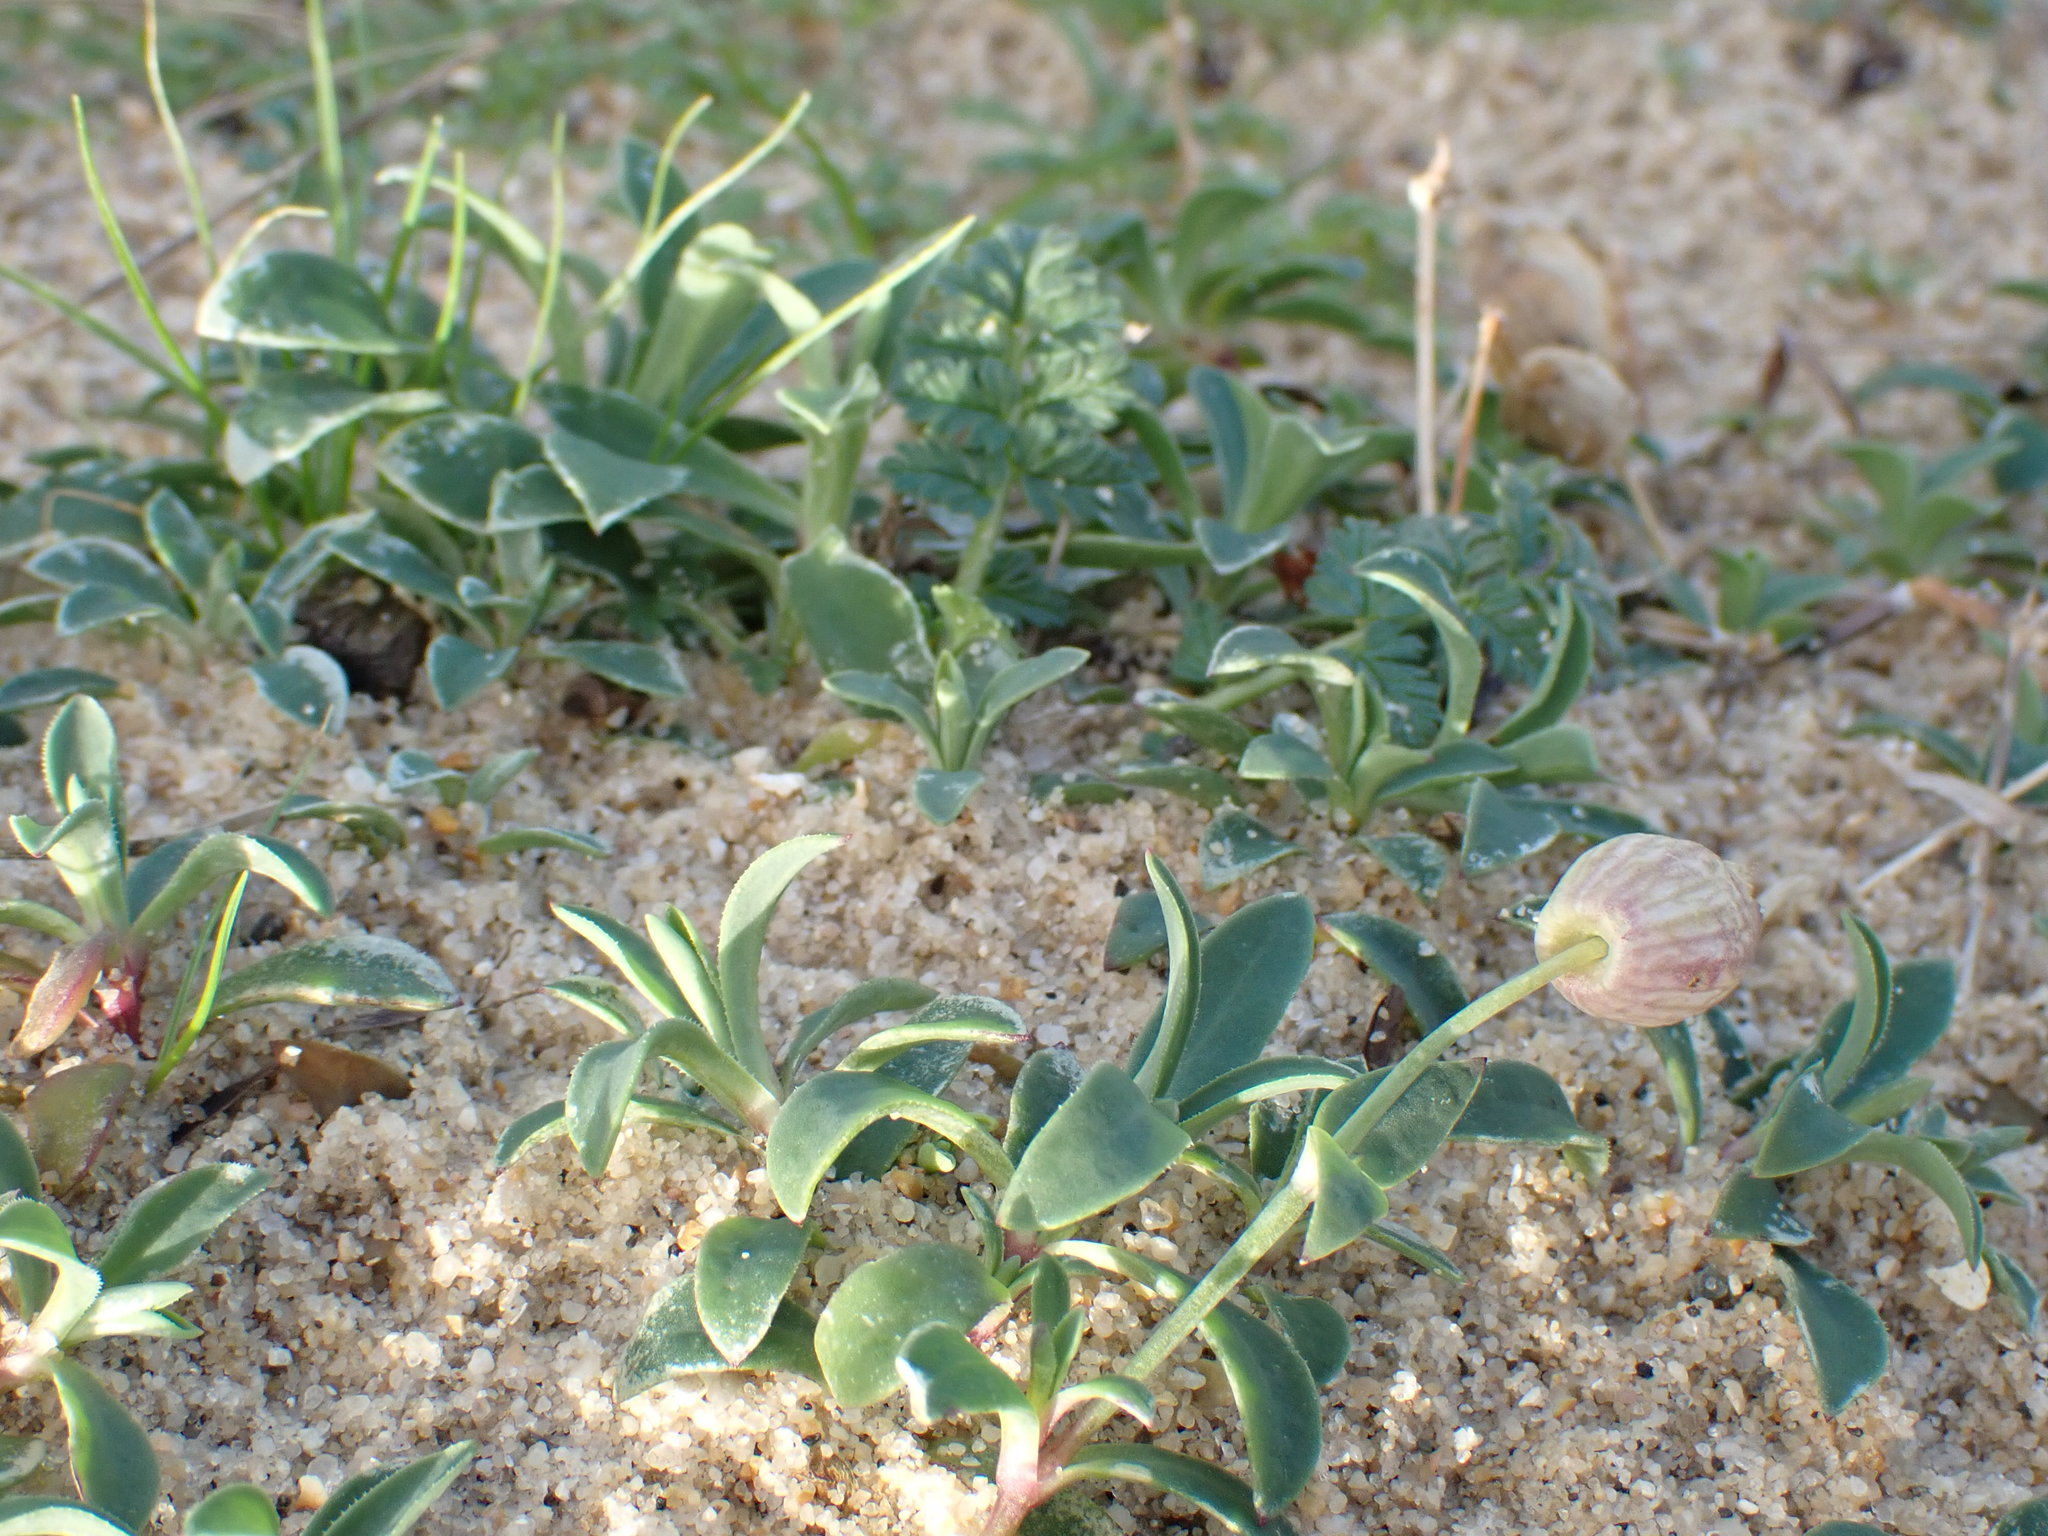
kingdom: Plantae
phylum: Tracheophyta
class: Magnoliopsida
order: Caryophyllales
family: Caryophyllaceae
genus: Silene
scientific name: Silene uniflora
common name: Sea campion
